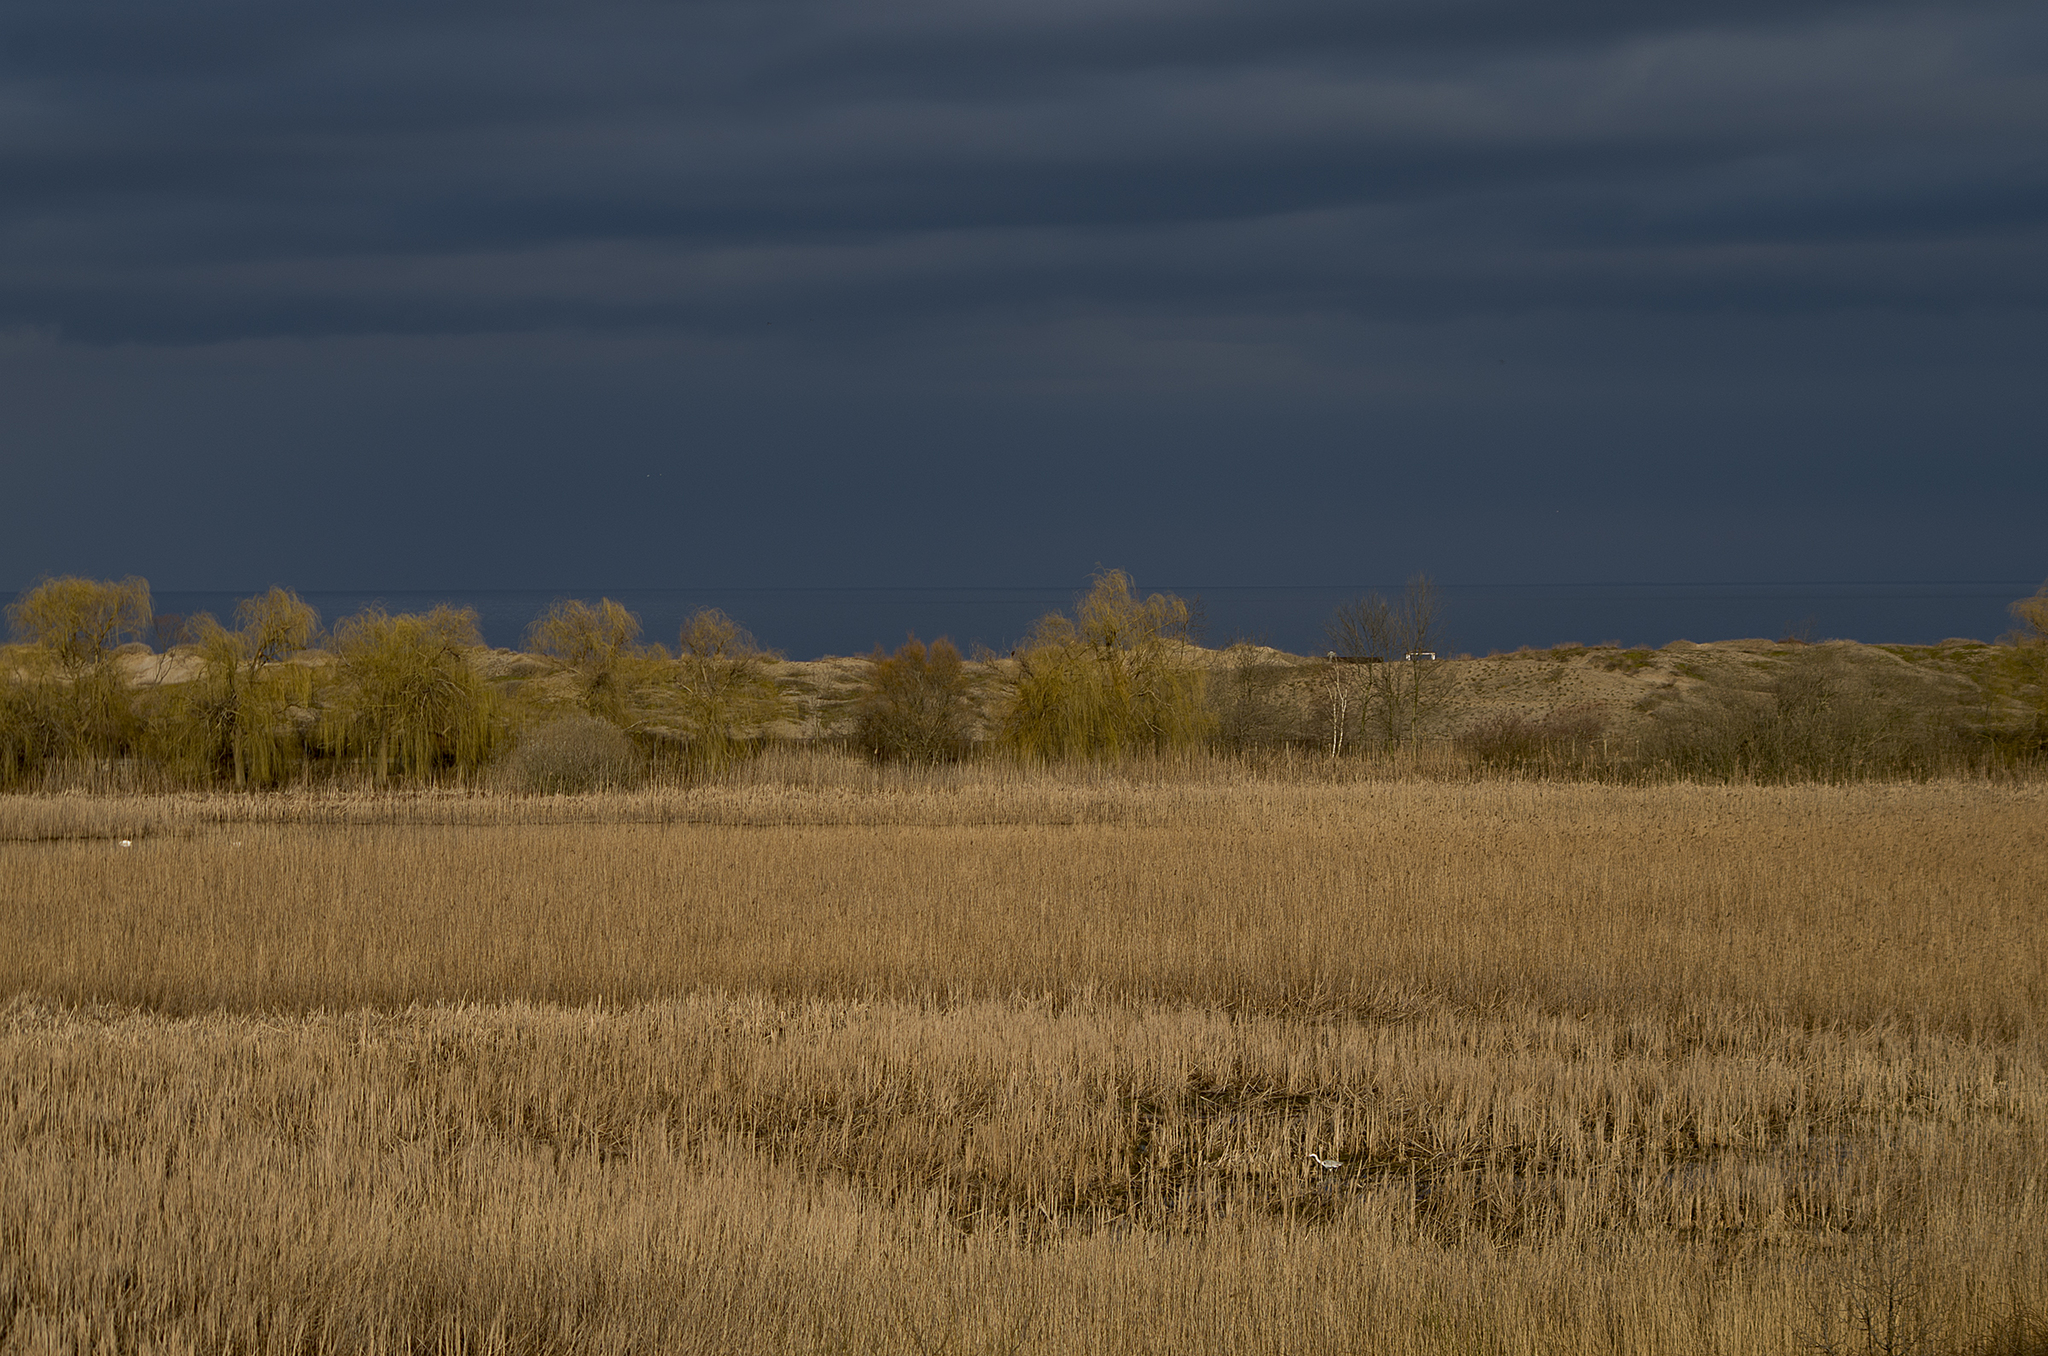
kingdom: Animalia
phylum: Chordata
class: Aves
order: Pelecaniformes
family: Ardeidae
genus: Ardea
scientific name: Ardea cinerea
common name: Grey heron
